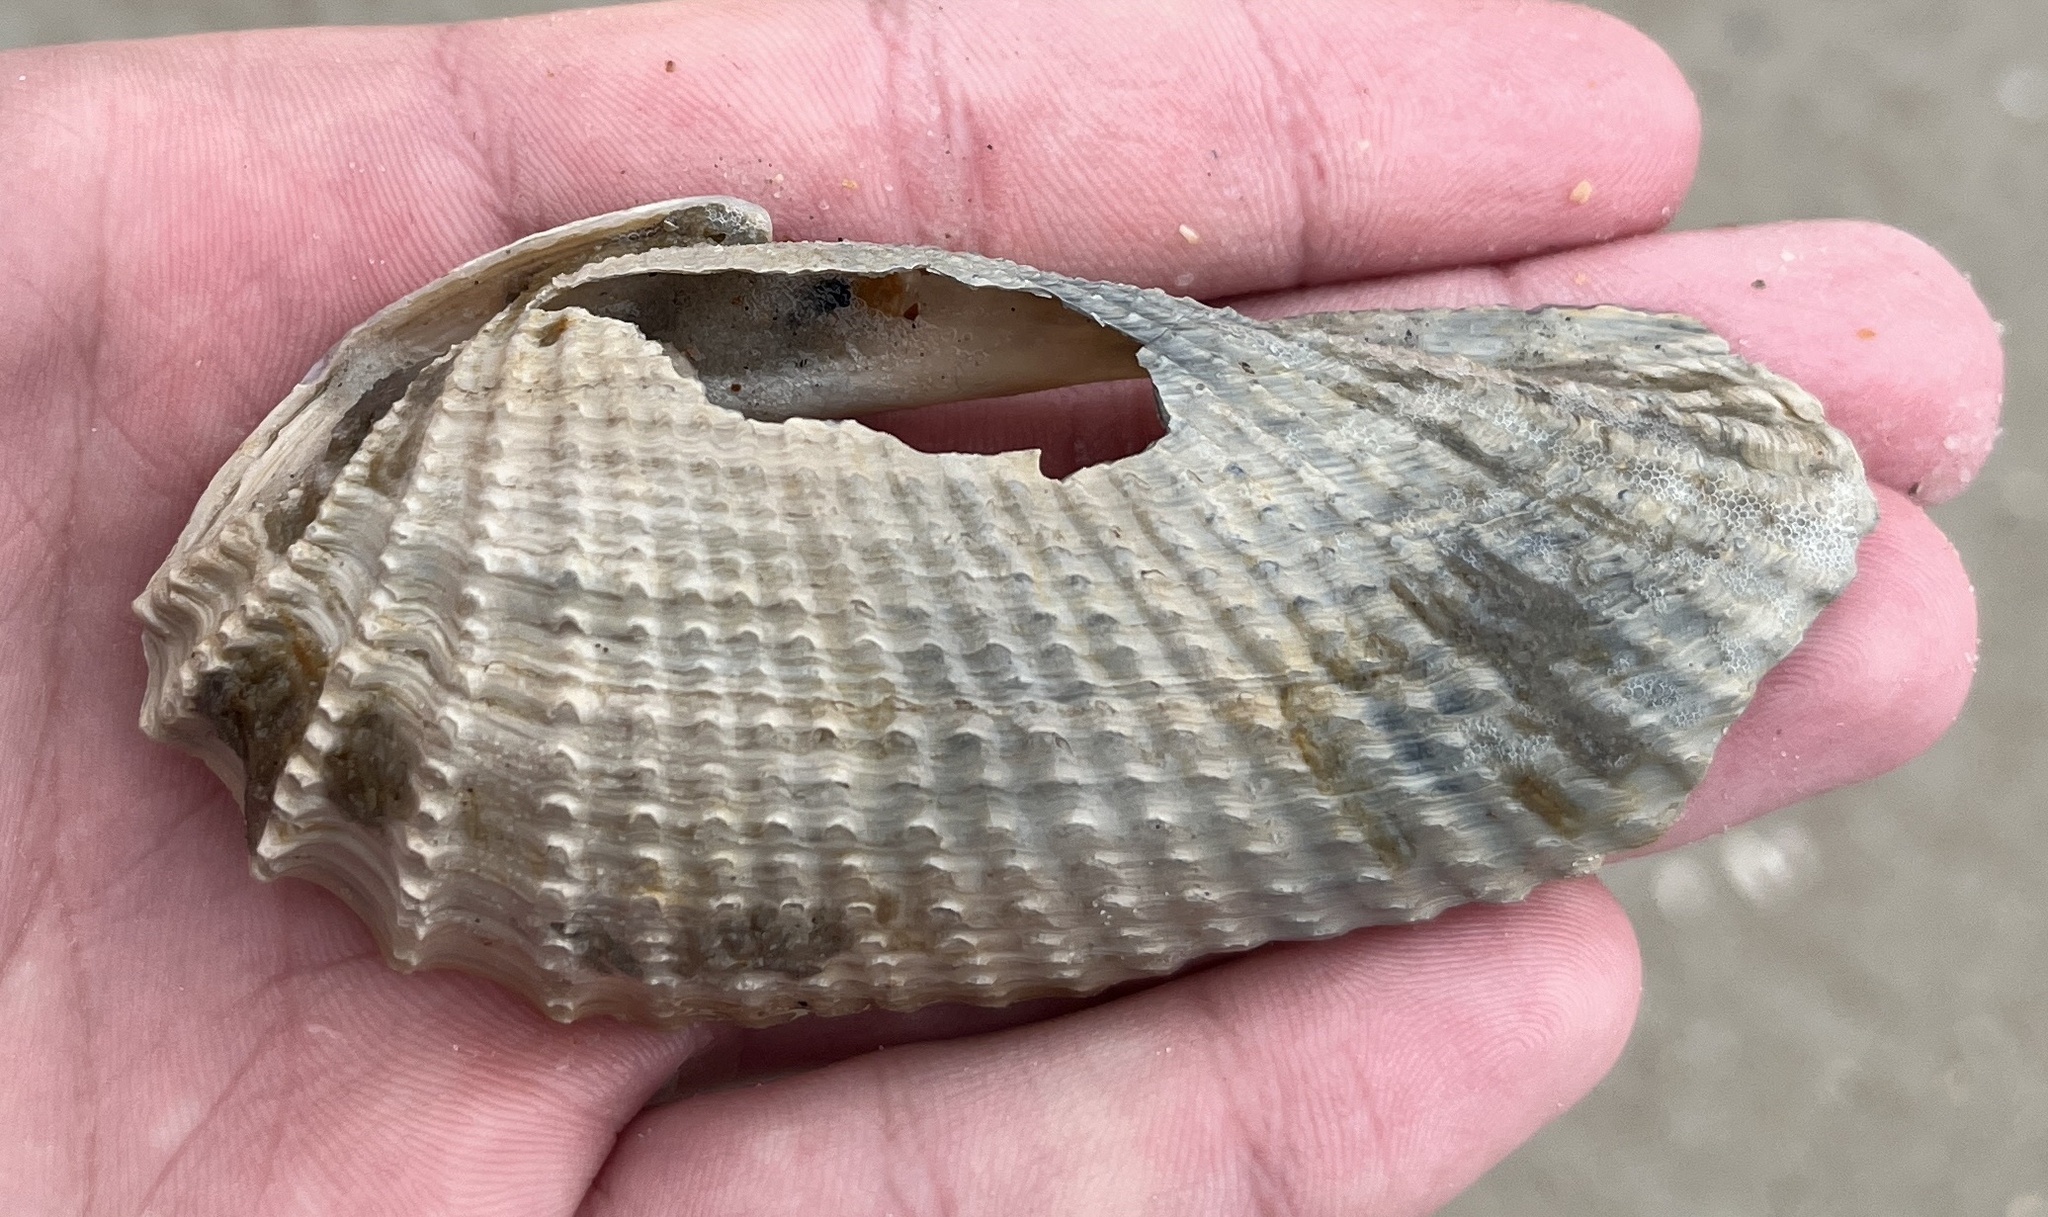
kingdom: Animalia
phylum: Mollusca
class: Bivalvia
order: Myida
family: Pholadidae
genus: Cyrtopleura
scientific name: Cyrtopleura costata
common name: Angel wing
